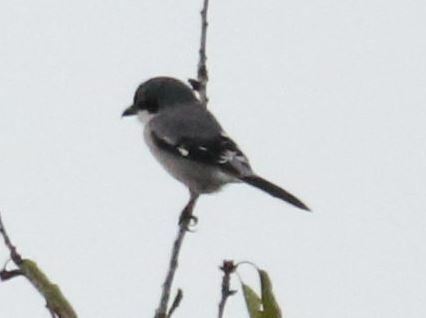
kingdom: Animalia
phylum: Chordata
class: Aves
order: Passeriformes
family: Laniidae
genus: Lanius
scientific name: Lanius meridionalis
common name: Iberian grey shrike
